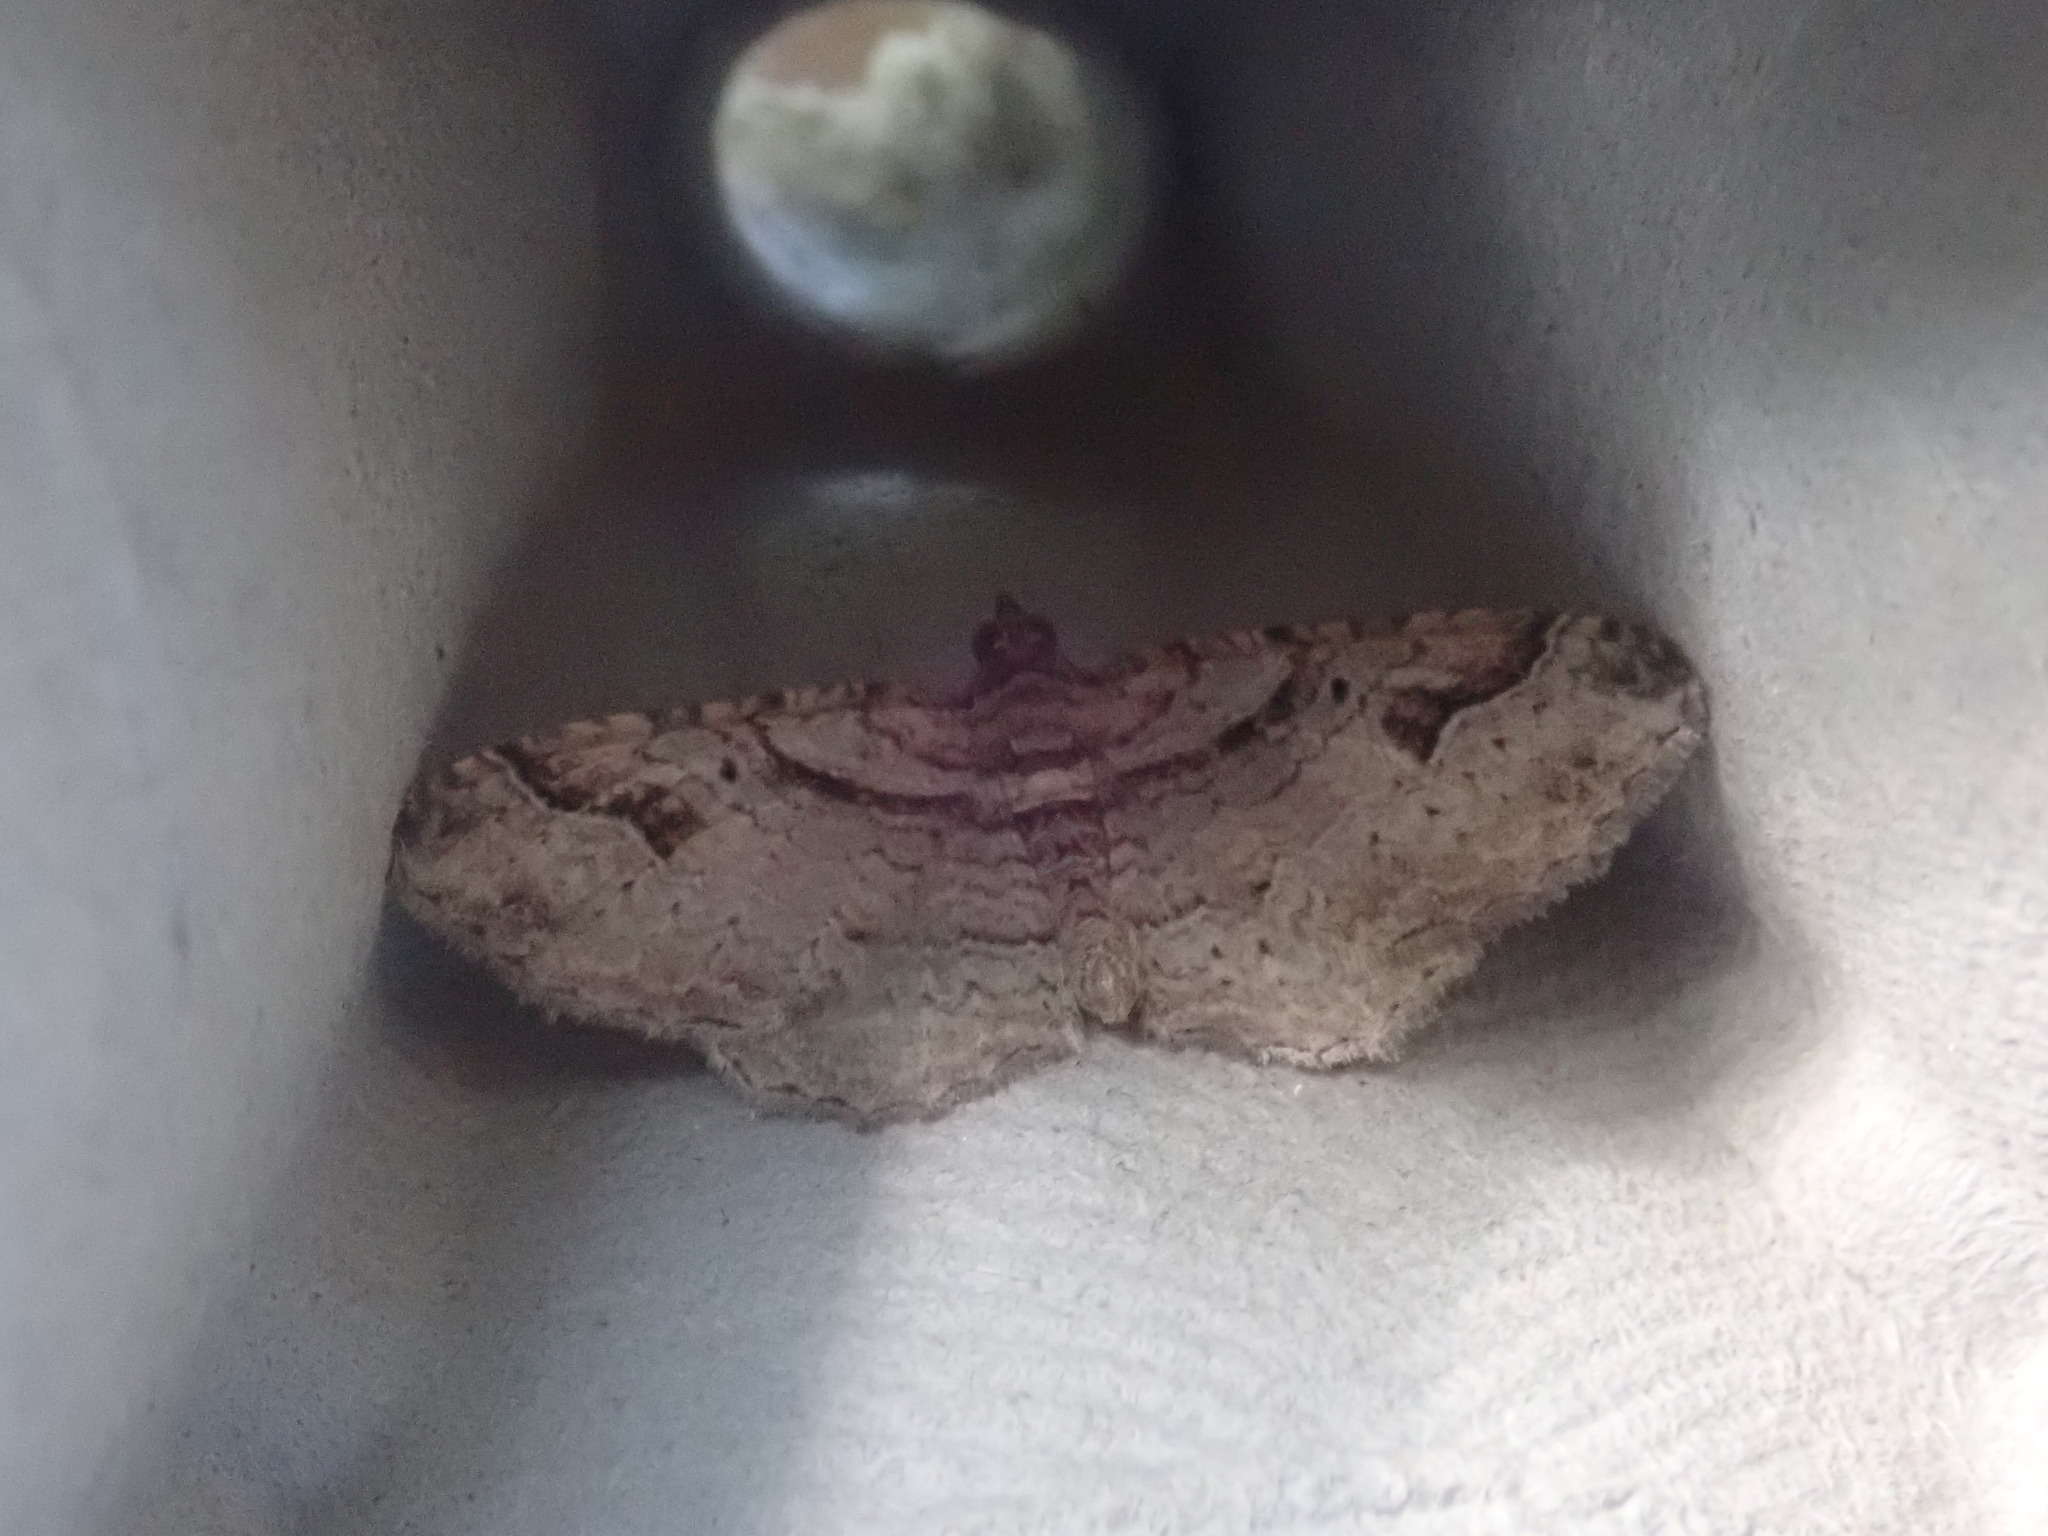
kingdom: Animalia
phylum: Arthropoda
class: Insecta
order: Lepidoptera
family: Geometridae
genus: Costaconvexa
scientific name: Costaconvexa centrostrigaria
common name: Bent-line carpet
